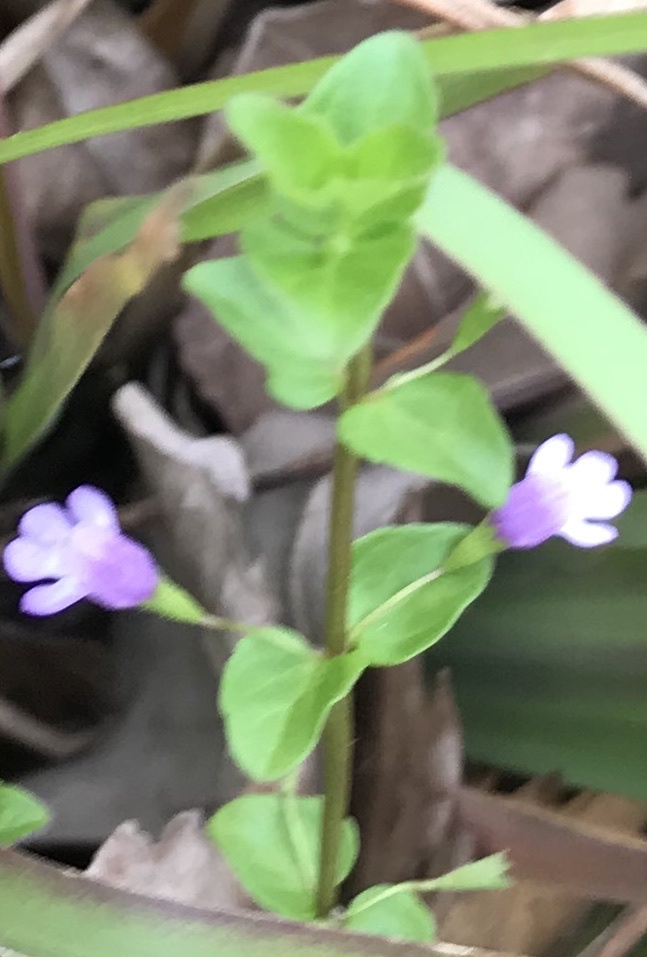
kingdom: Plantae
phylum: Tracheophyta
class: Magnoliopsida
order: Lamiales
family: Lamiaceae
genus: Clinopodium
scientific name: Clinopodium brownei
